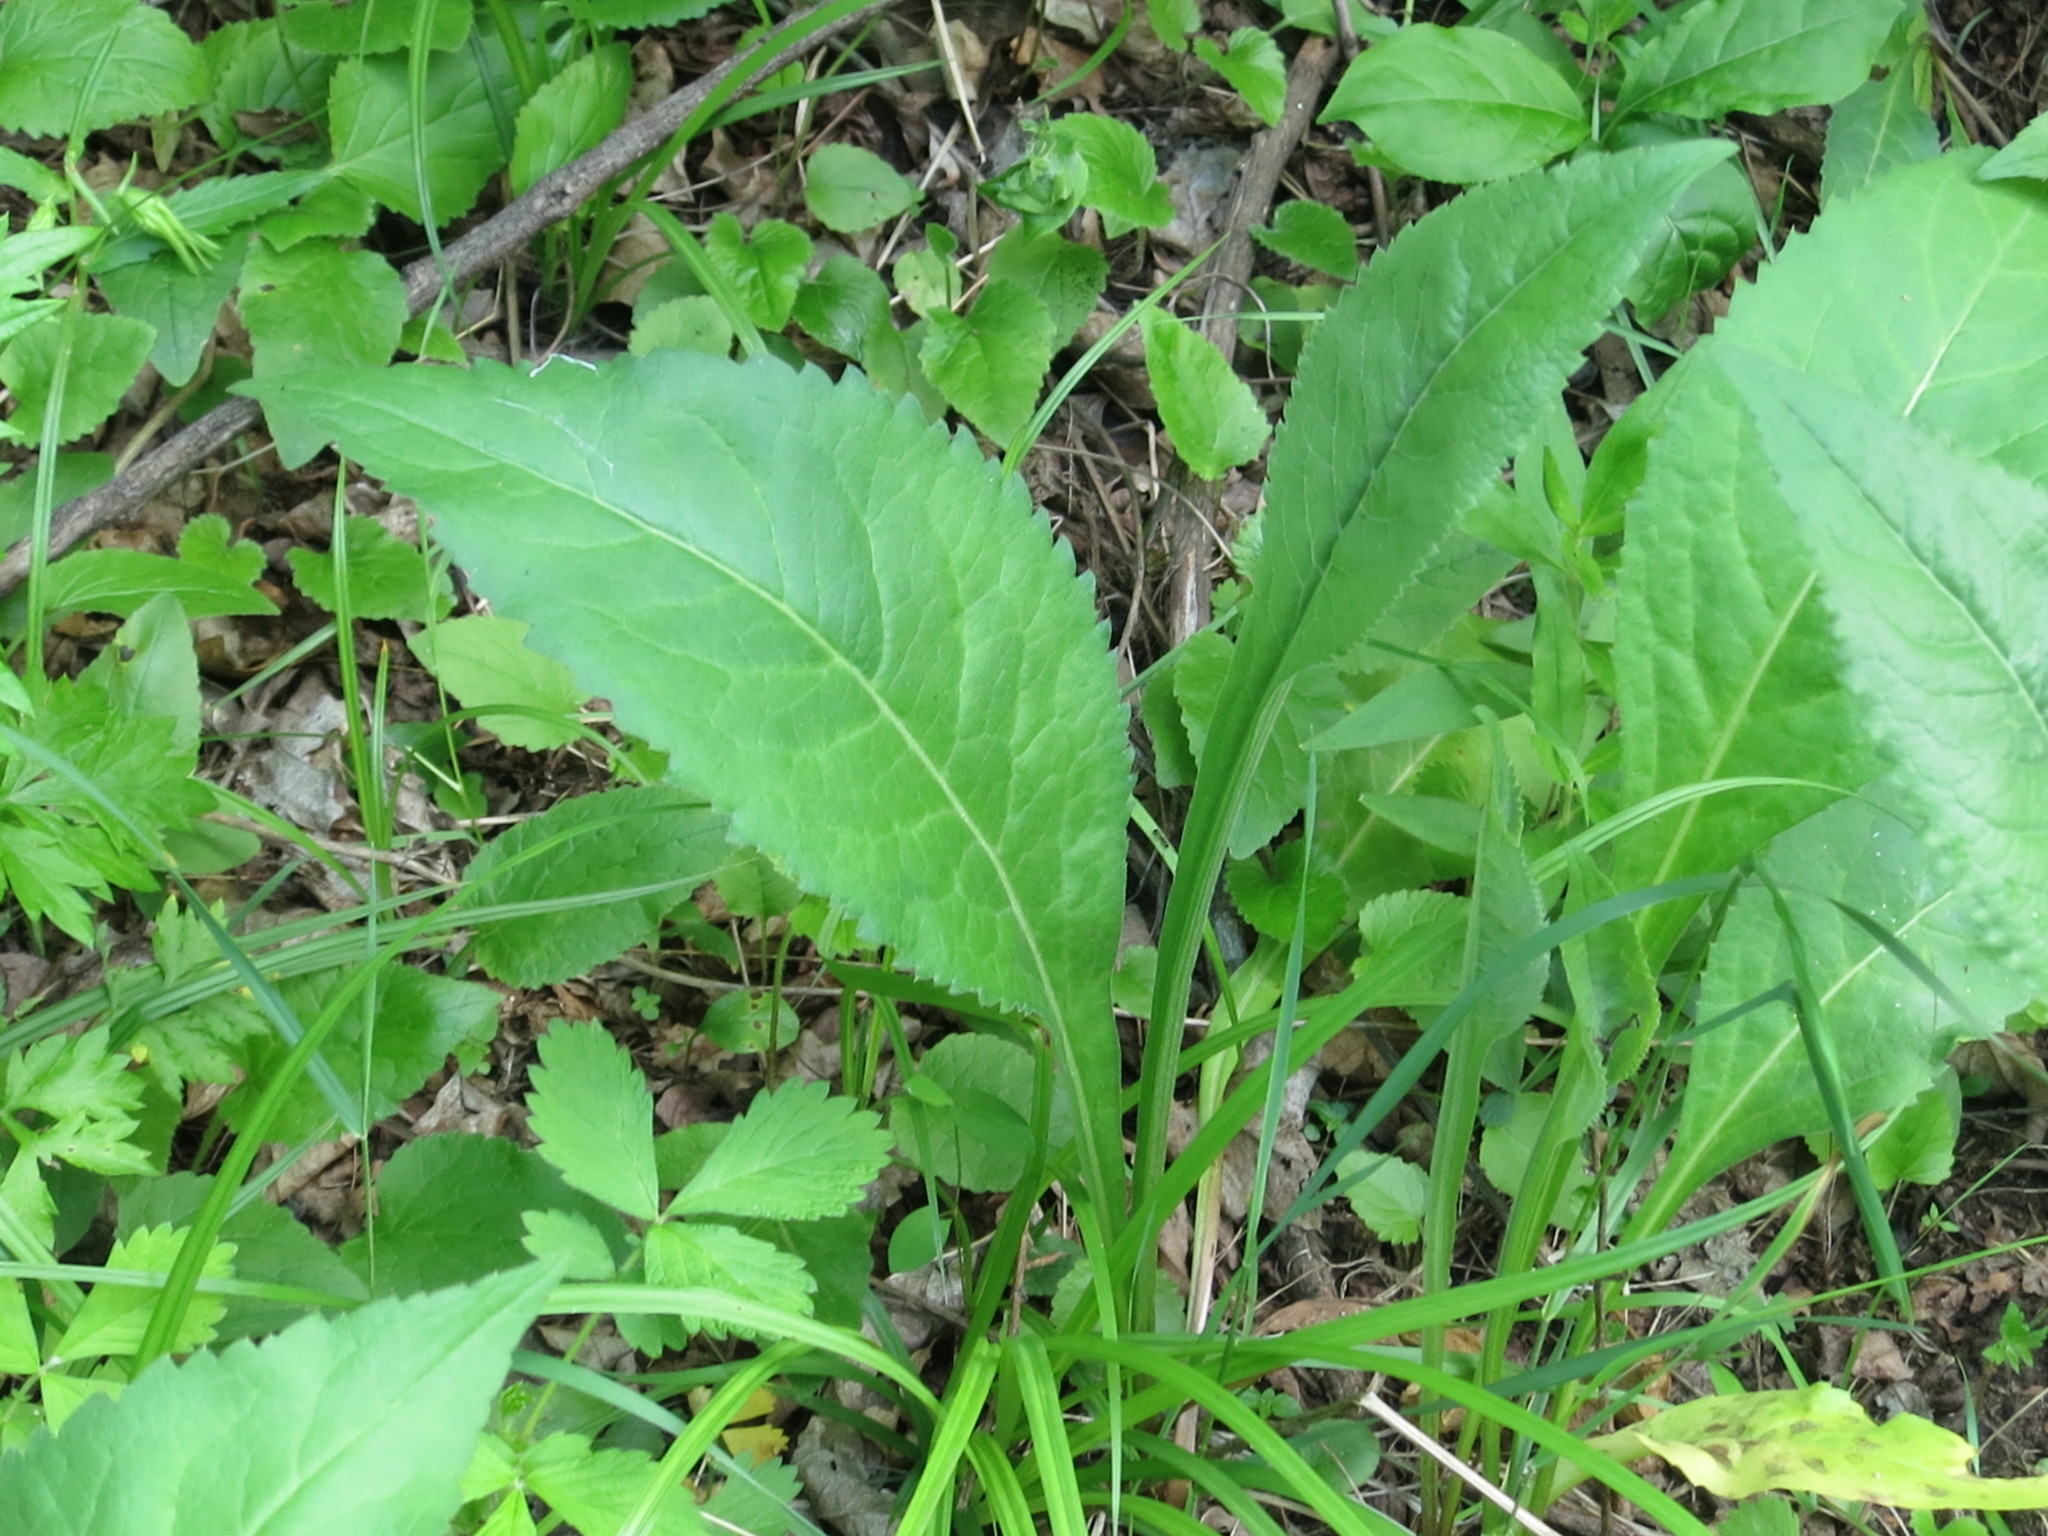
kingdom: Plantae
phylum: Tracheophyta
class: Magnoliopsida
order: Asterales
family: Asteraceae
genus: Aster
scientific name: Aster tataricus
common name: Tatarian aster
